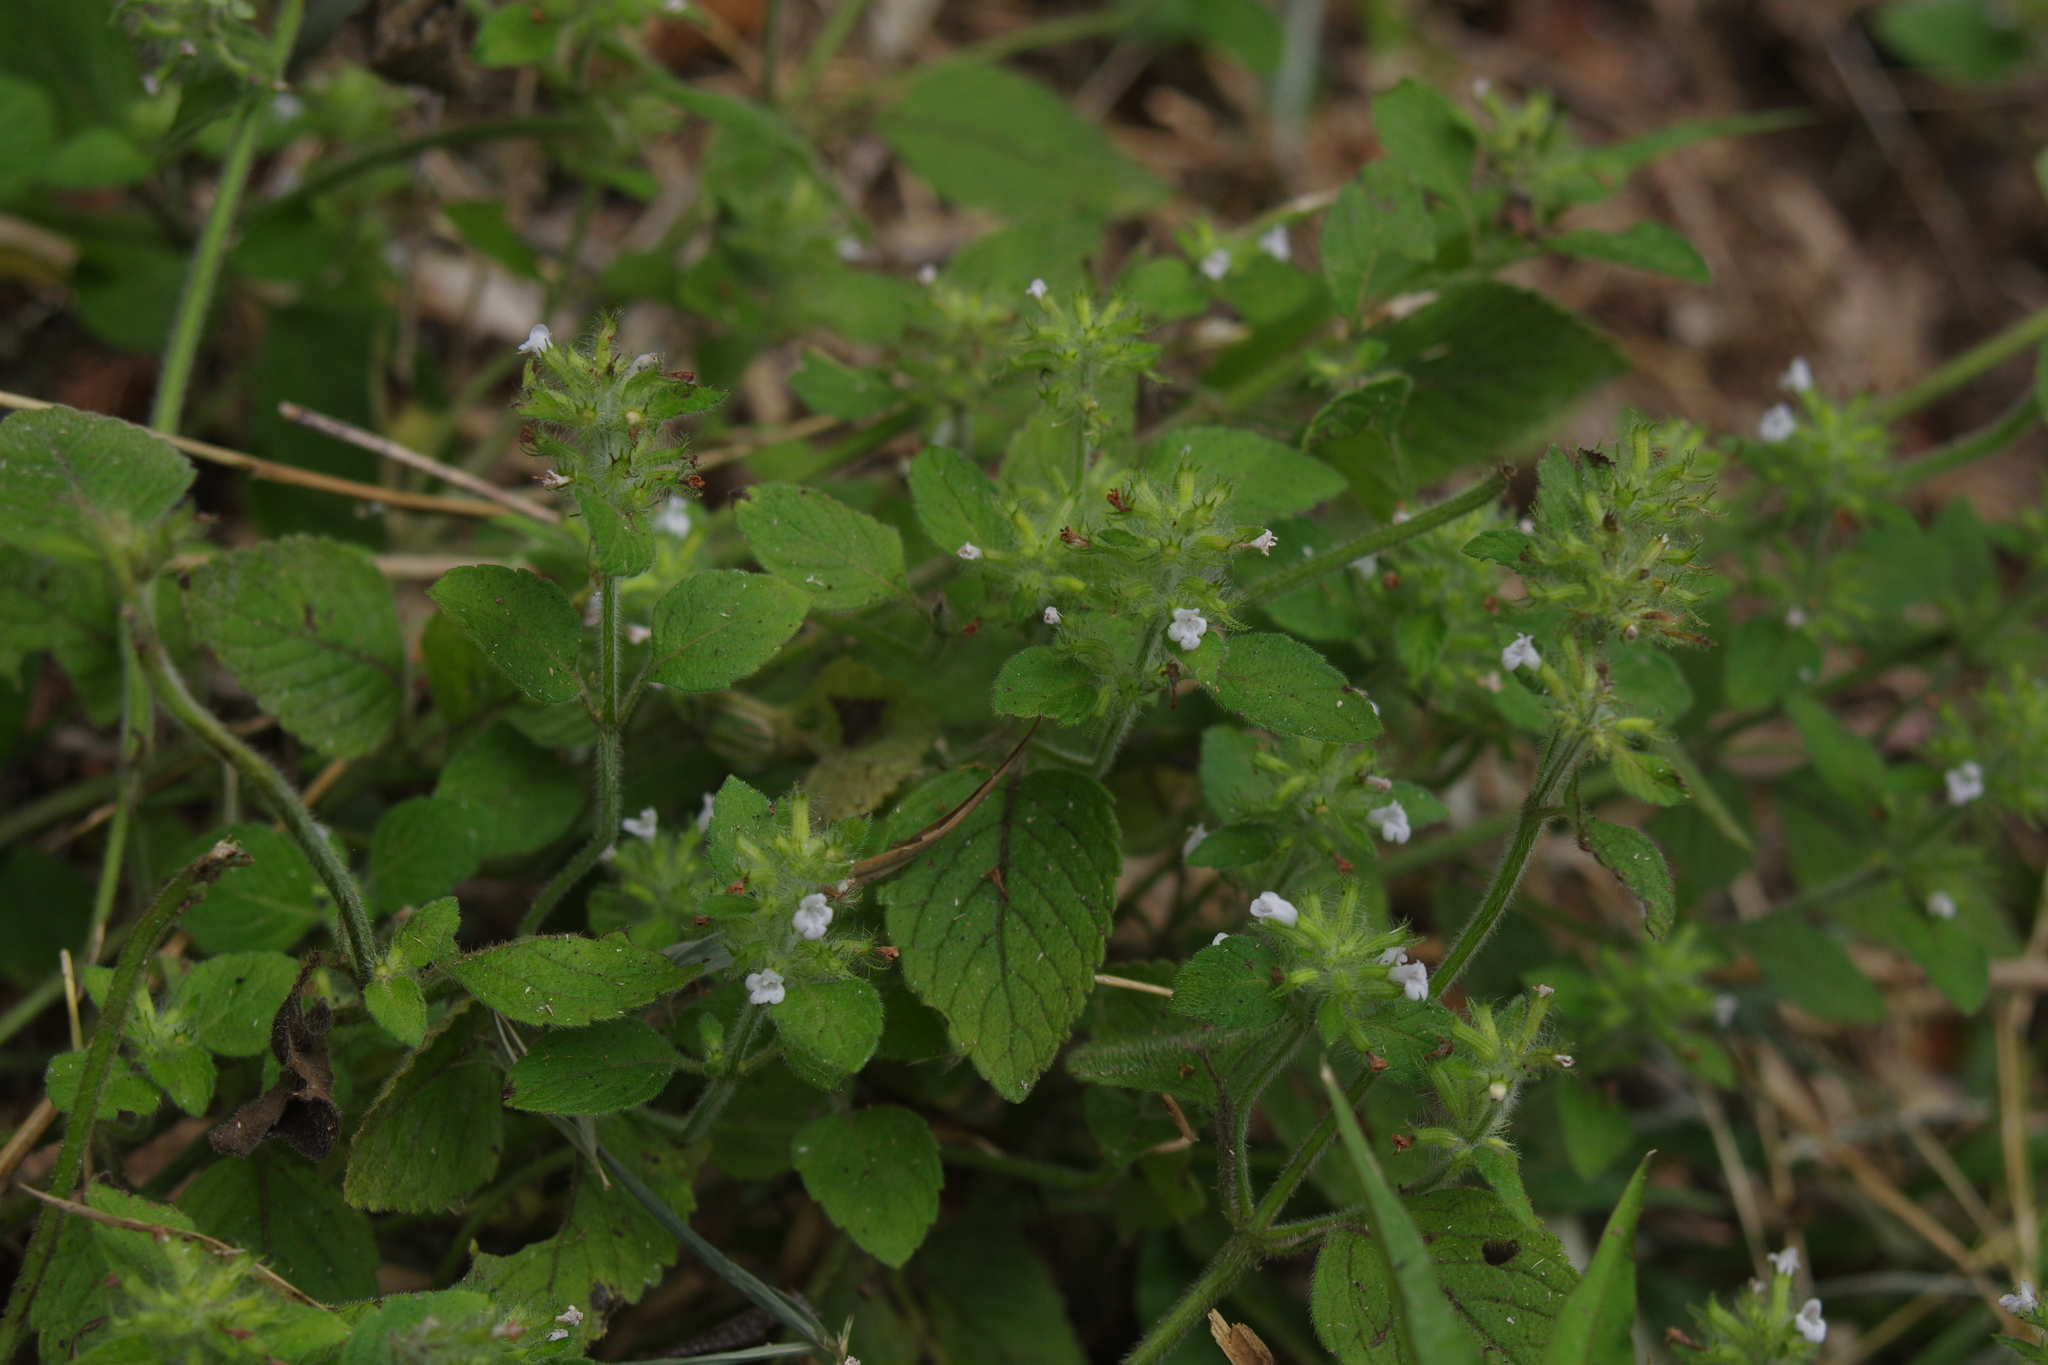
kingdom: Plantae
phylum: Tracheophyta
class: Magnoliopsida
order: Lamiales
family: Lamiaceae
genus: Clinopodium
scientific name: Clinopodium chinense
